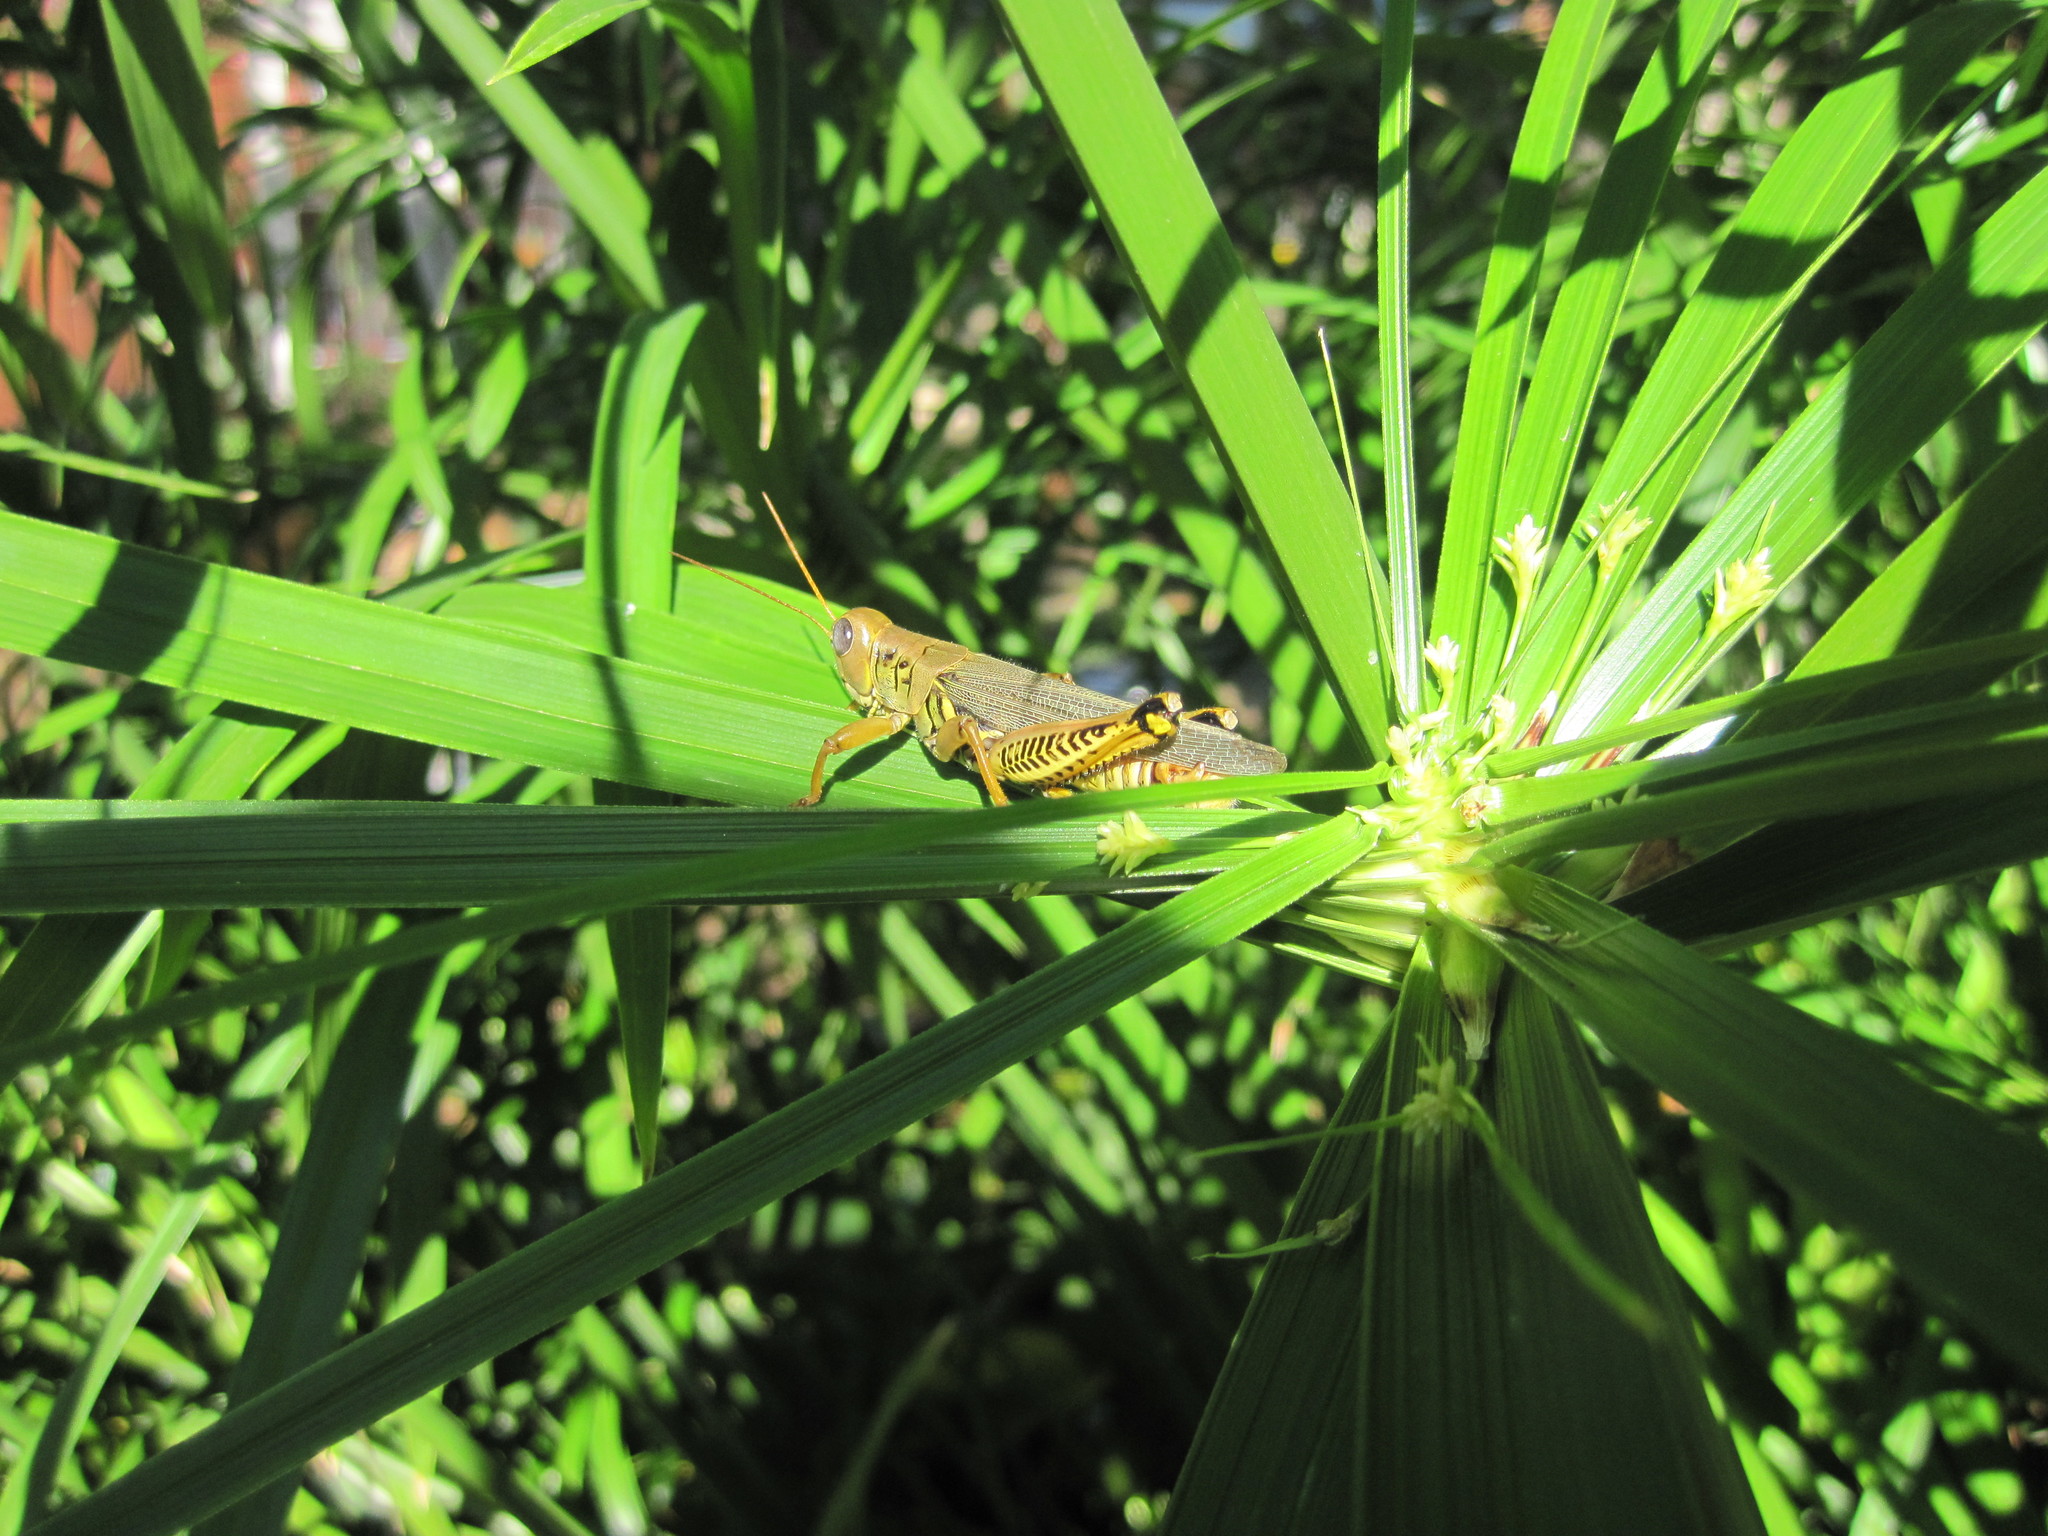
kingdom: Animalia
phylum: Arthropoda
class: Insecta
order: Orthoptera
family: Acrididae
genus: Melanoplus
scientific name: Melanoplus differentialis
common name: Differential grasshopper
